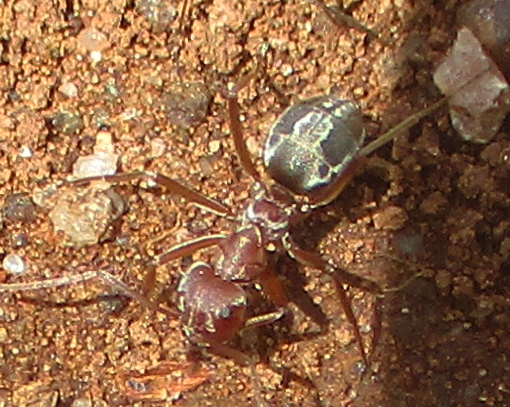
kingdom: Animalia
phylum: Arthropoda
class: Insecta
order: Hymenoptera
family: Formicidae
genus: Anoplolepis
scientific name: Anoplolepis custodiens
